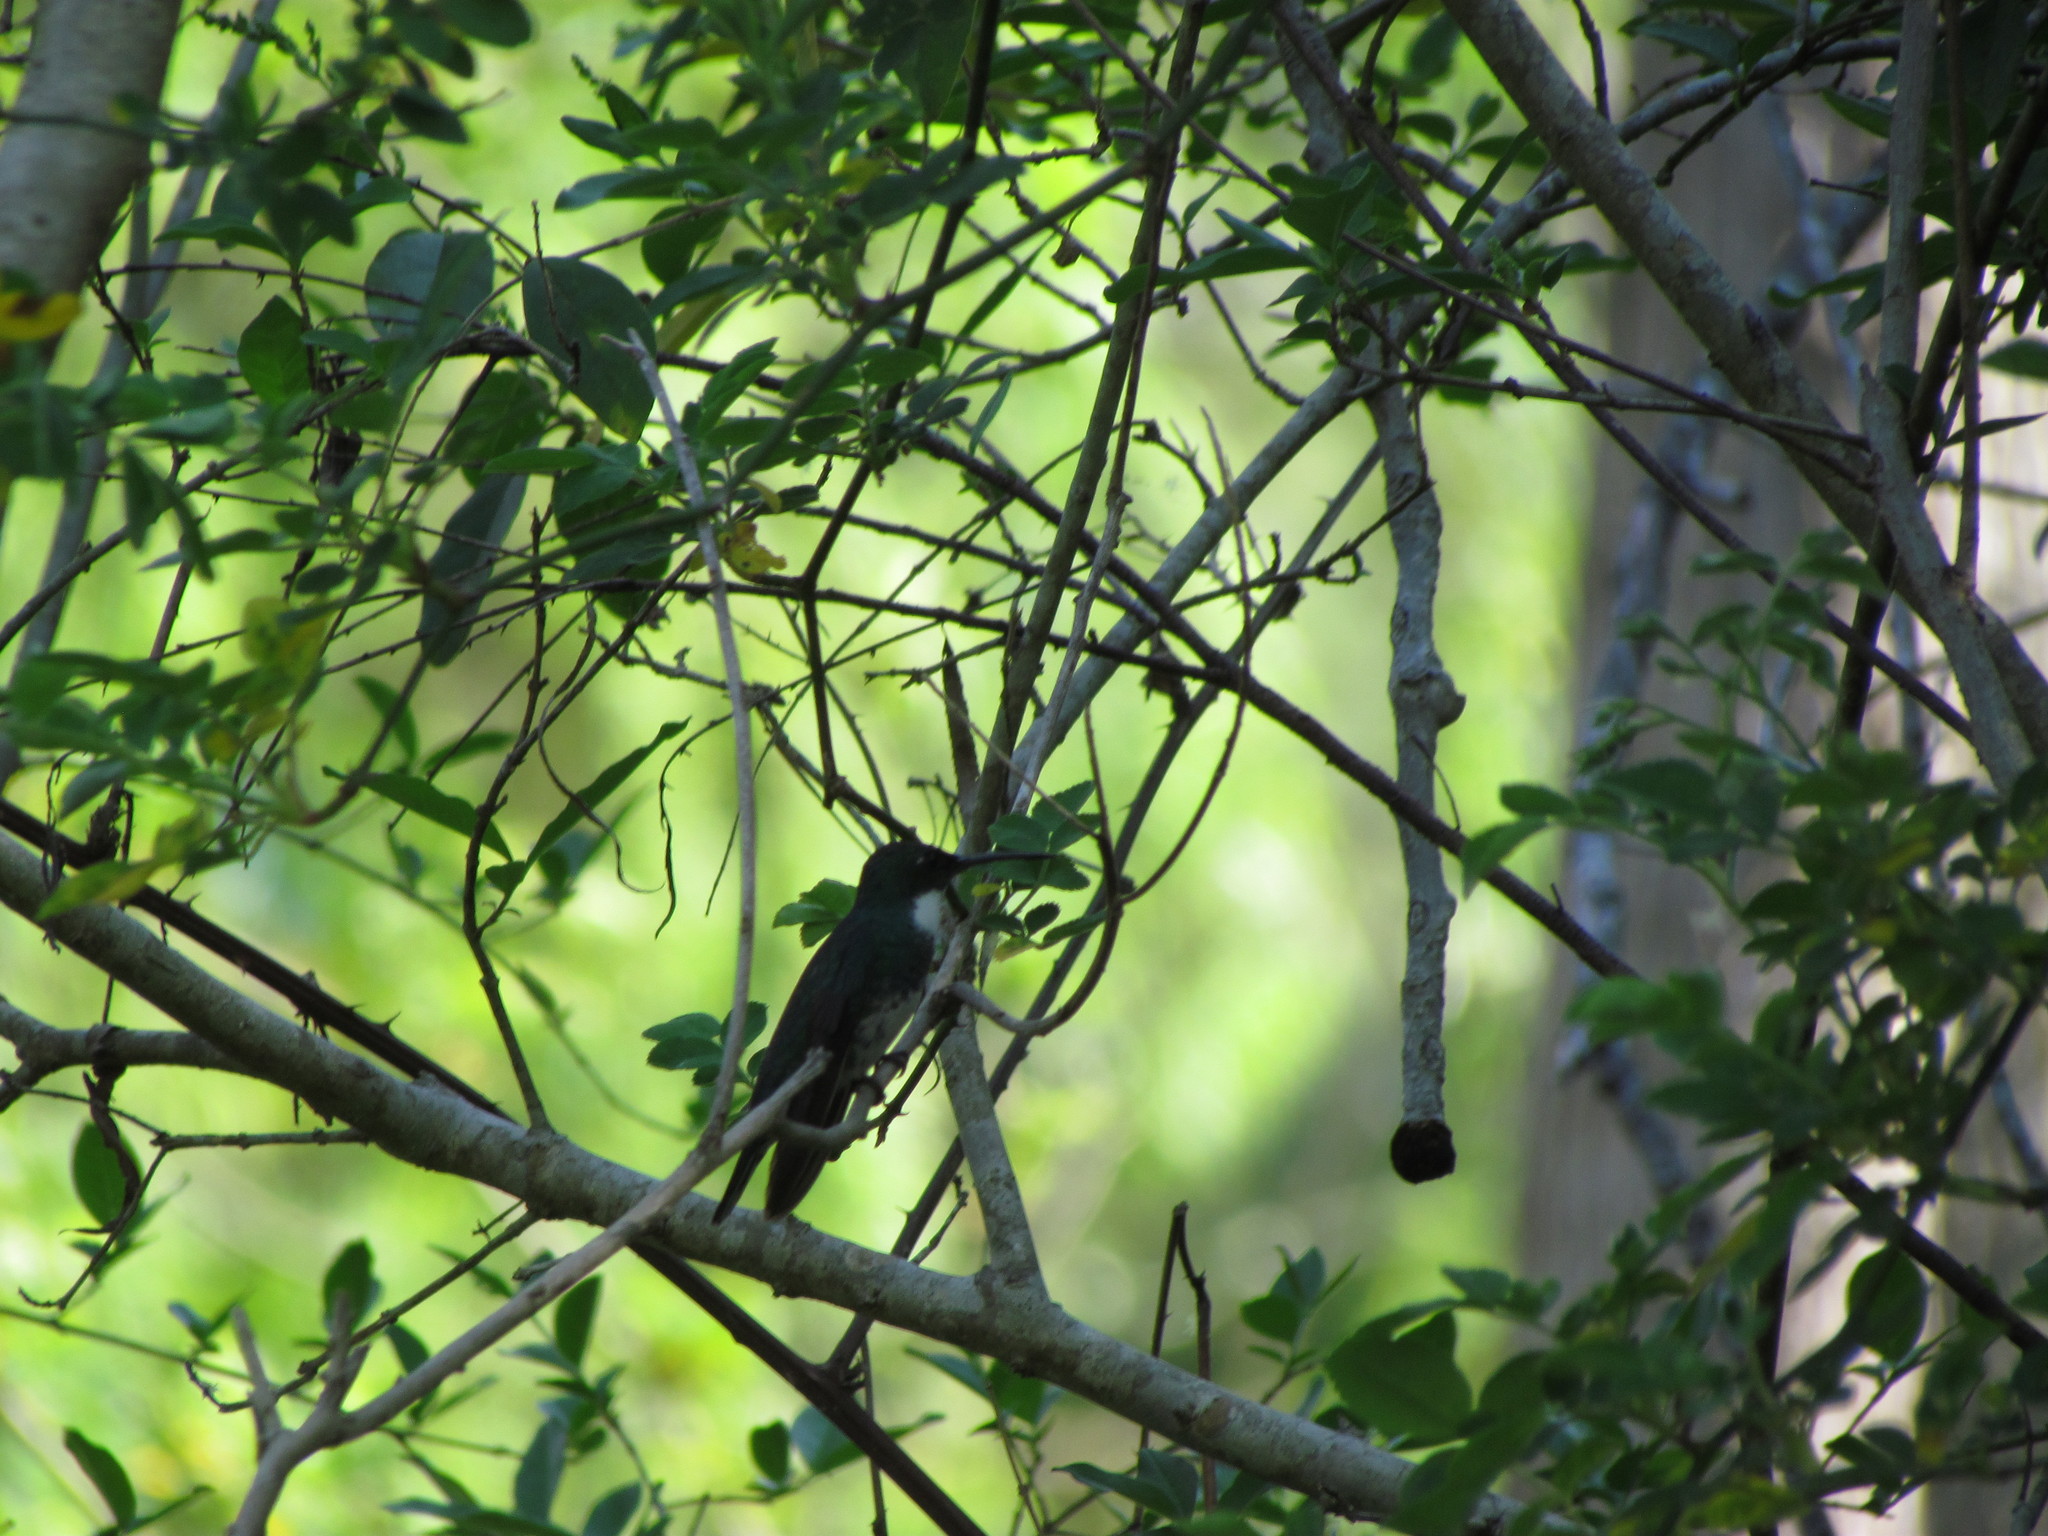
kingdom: Animalia
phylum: Chordata
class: Aves
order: Apodiformes
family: Trochilidae
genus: Leucochloris
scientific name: Leucochloris albicollis
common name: White-throated hummingbird
